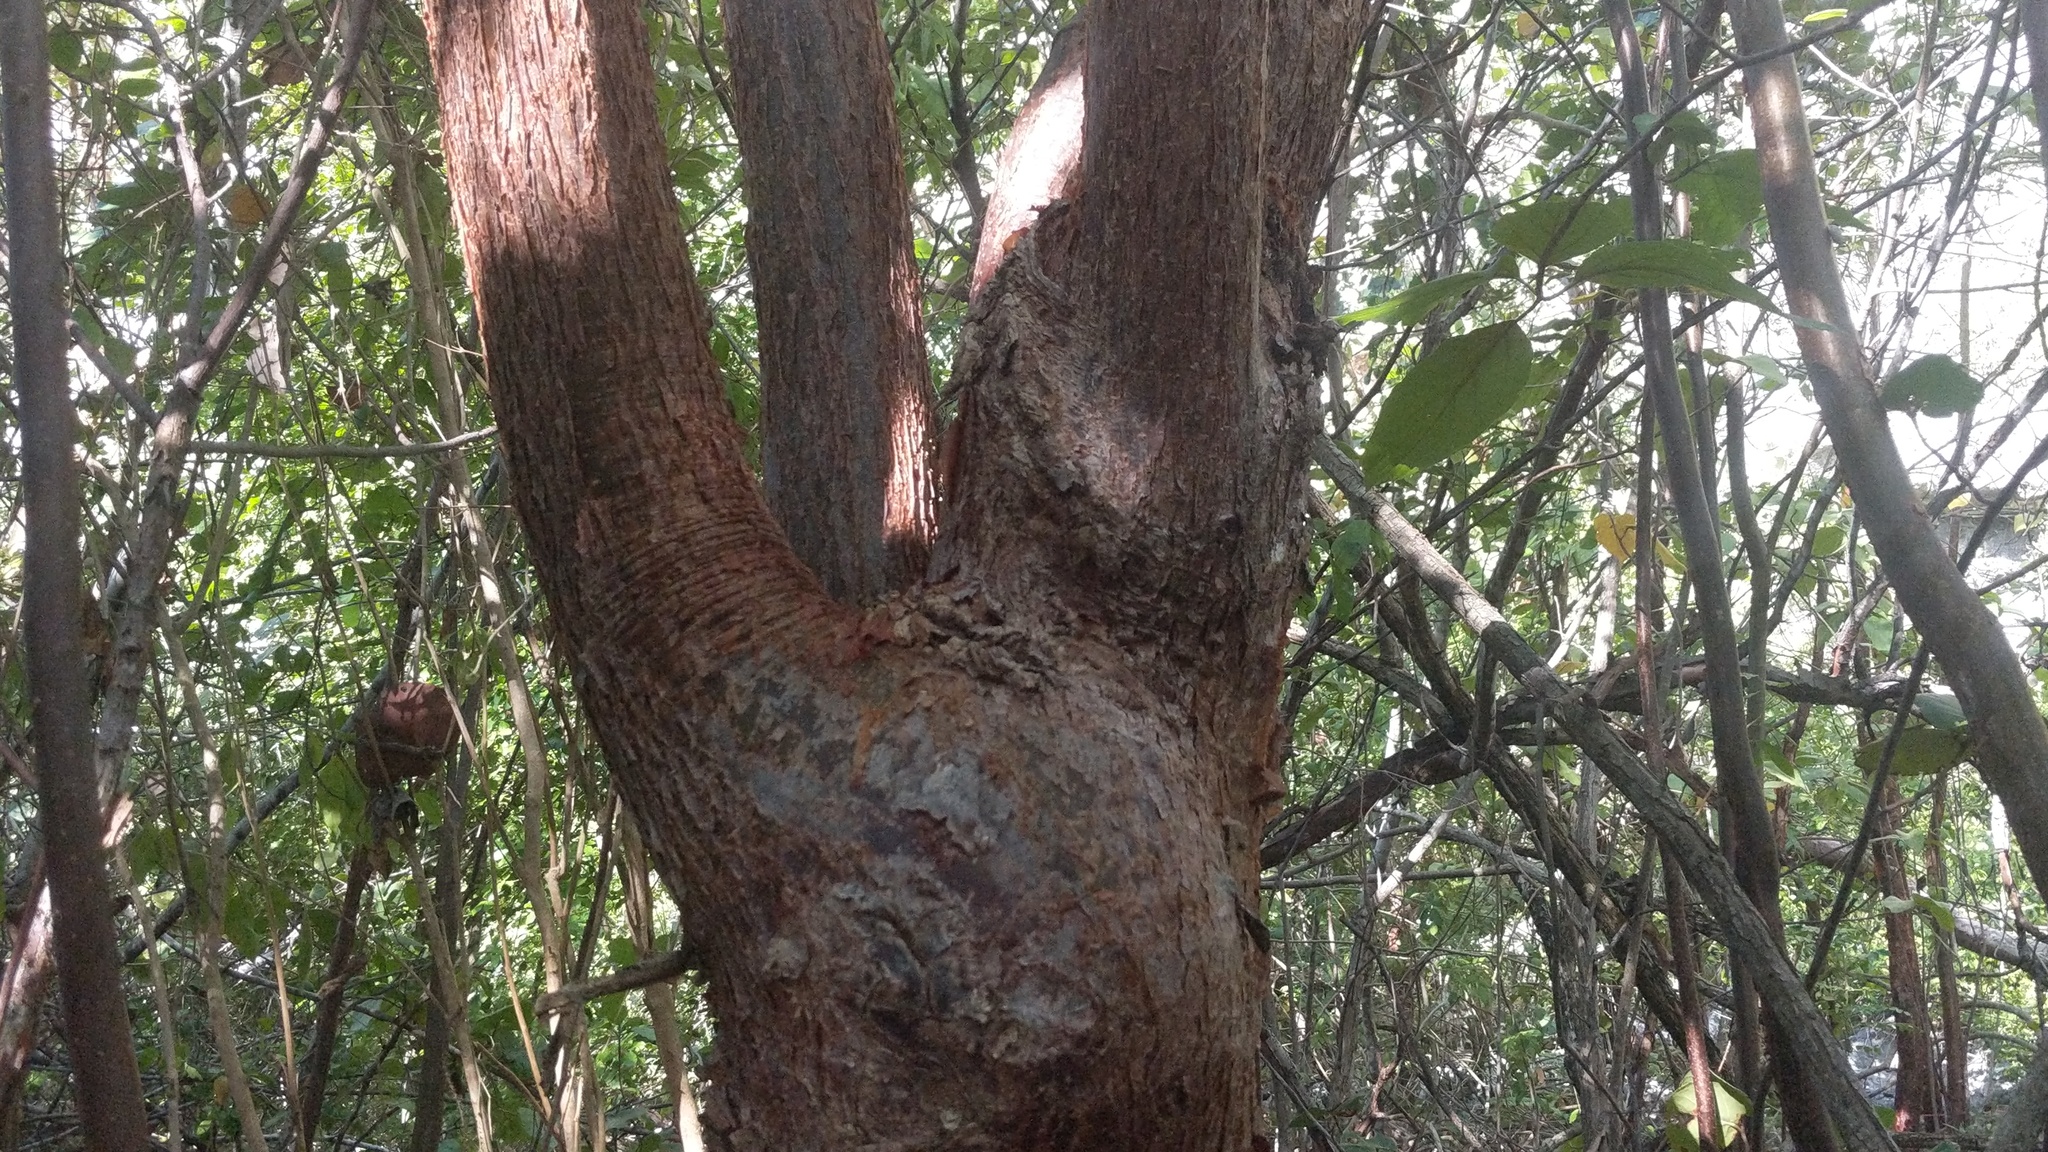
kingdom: Plantae
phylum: Tracheophyta
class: Magnoliopsida
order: Sapindales
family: Burseraceae
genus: Bursera
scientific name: Bursera simaruba
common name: Turpentine tree
